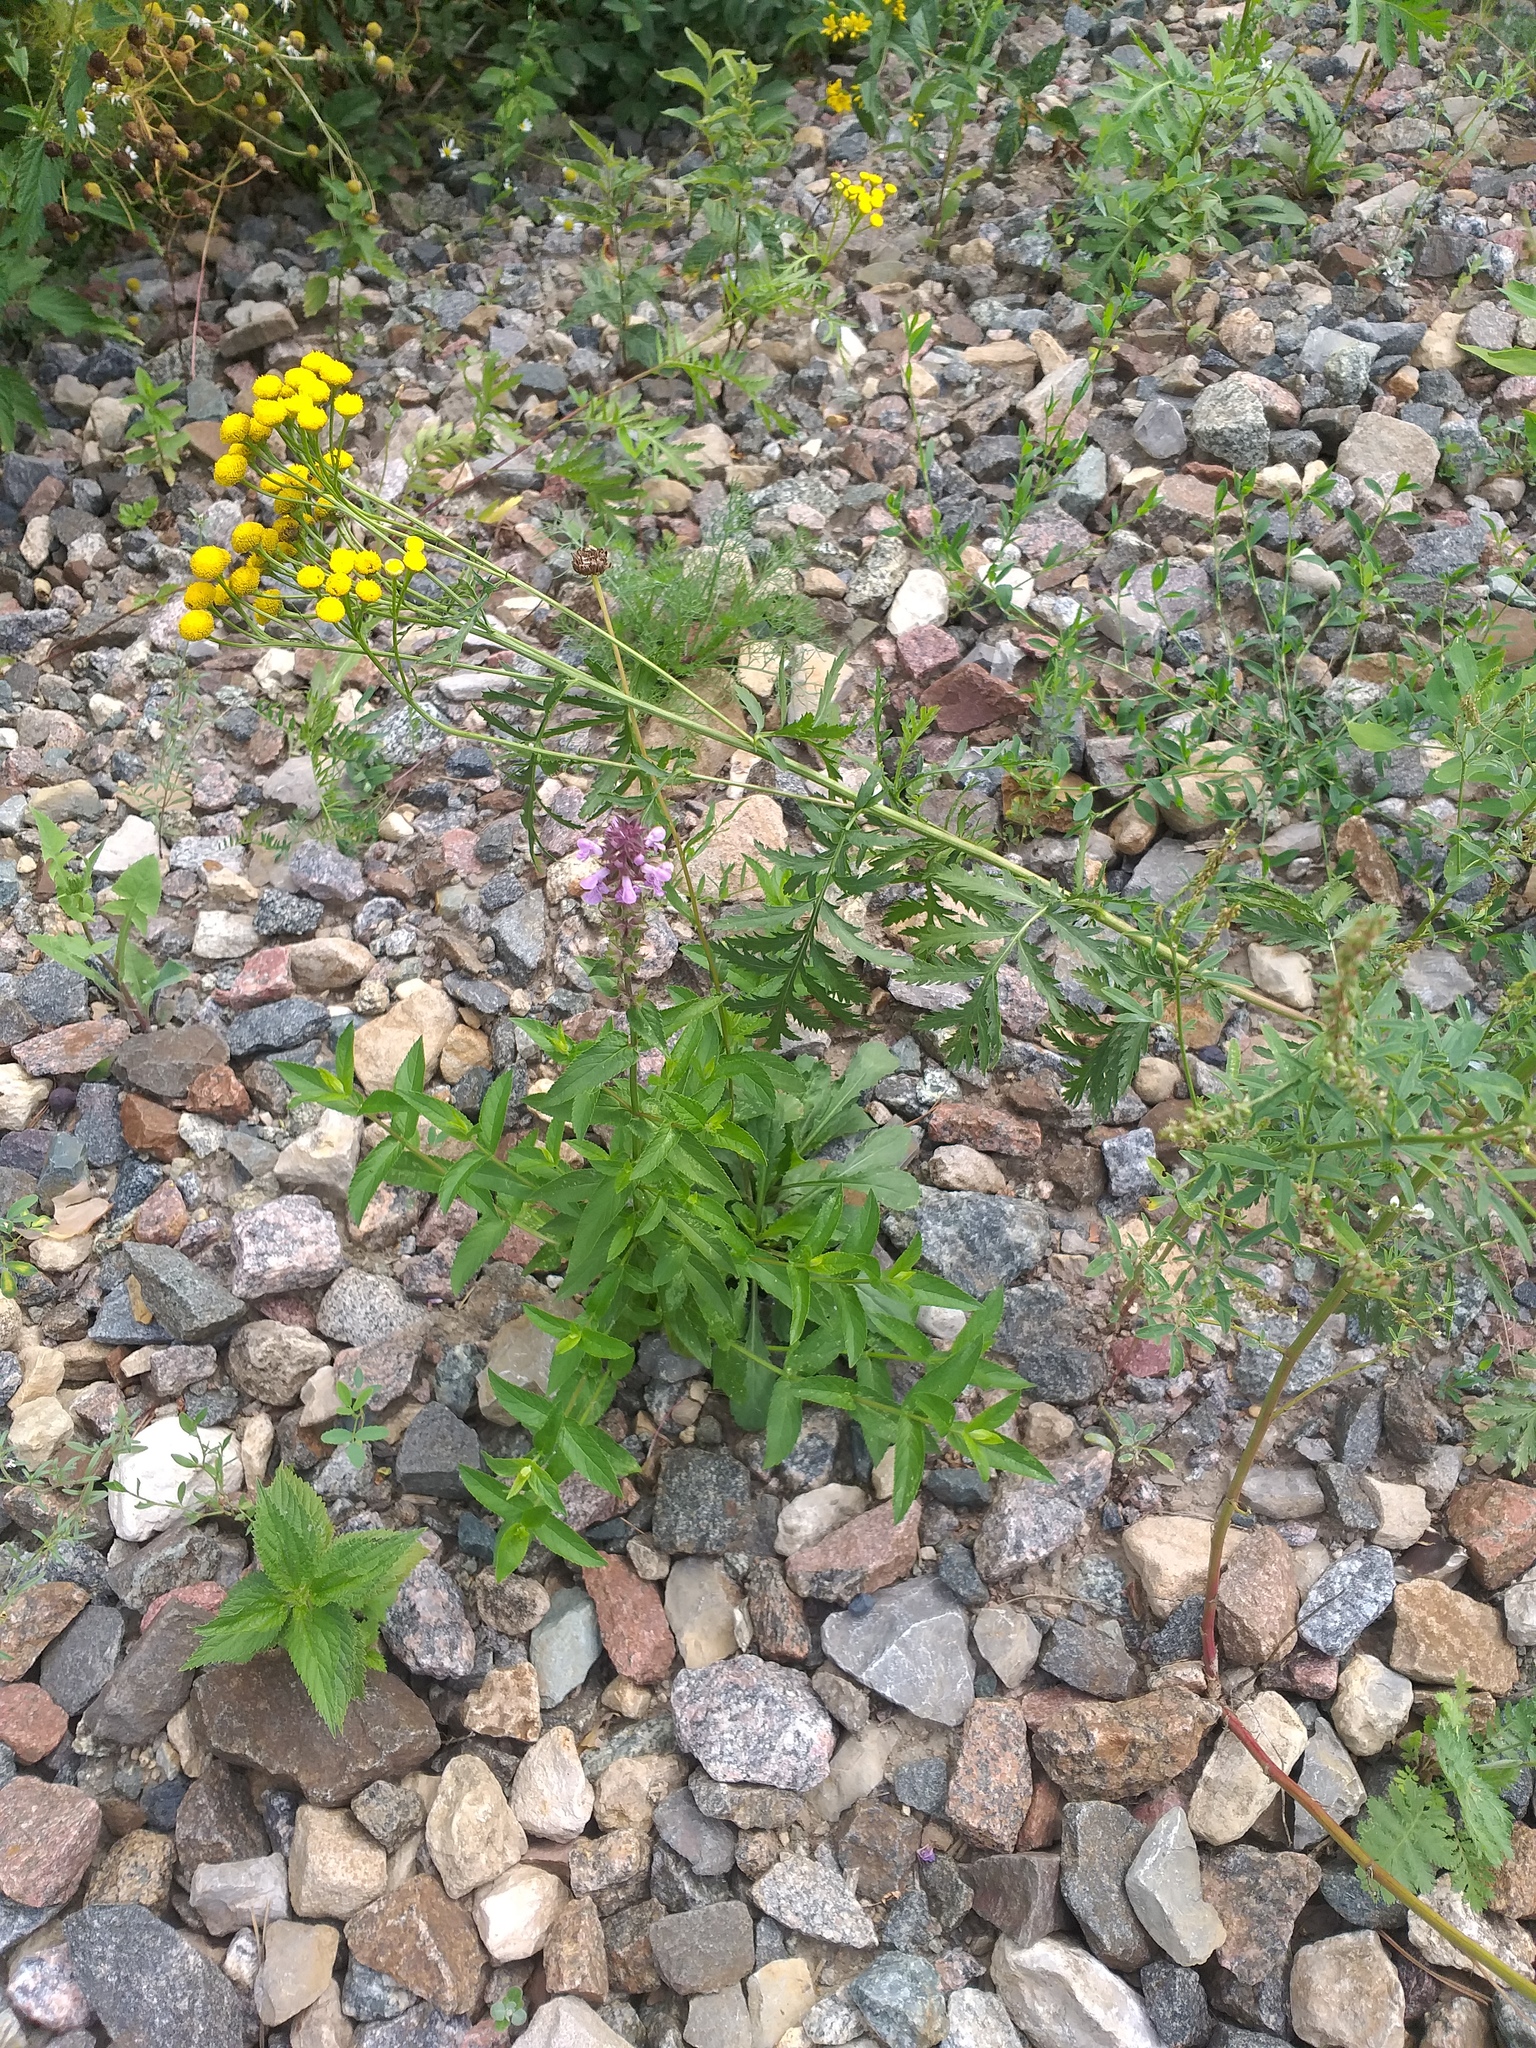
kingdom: Plantae
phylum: Tracheophyta
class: Magnoliopsida
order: Lamiales
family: Lamiaceae
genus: Stachys
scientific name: Stachys palustris
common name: Marsh woundwort
